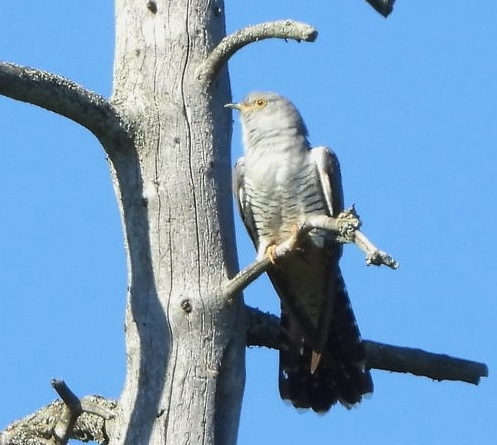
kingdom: Animalia
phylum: Chordata
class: Aves
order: Cuculiformes
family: Cuculidae
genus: Cuculus
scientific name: Cuculus canorus
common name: Common cuckoo
